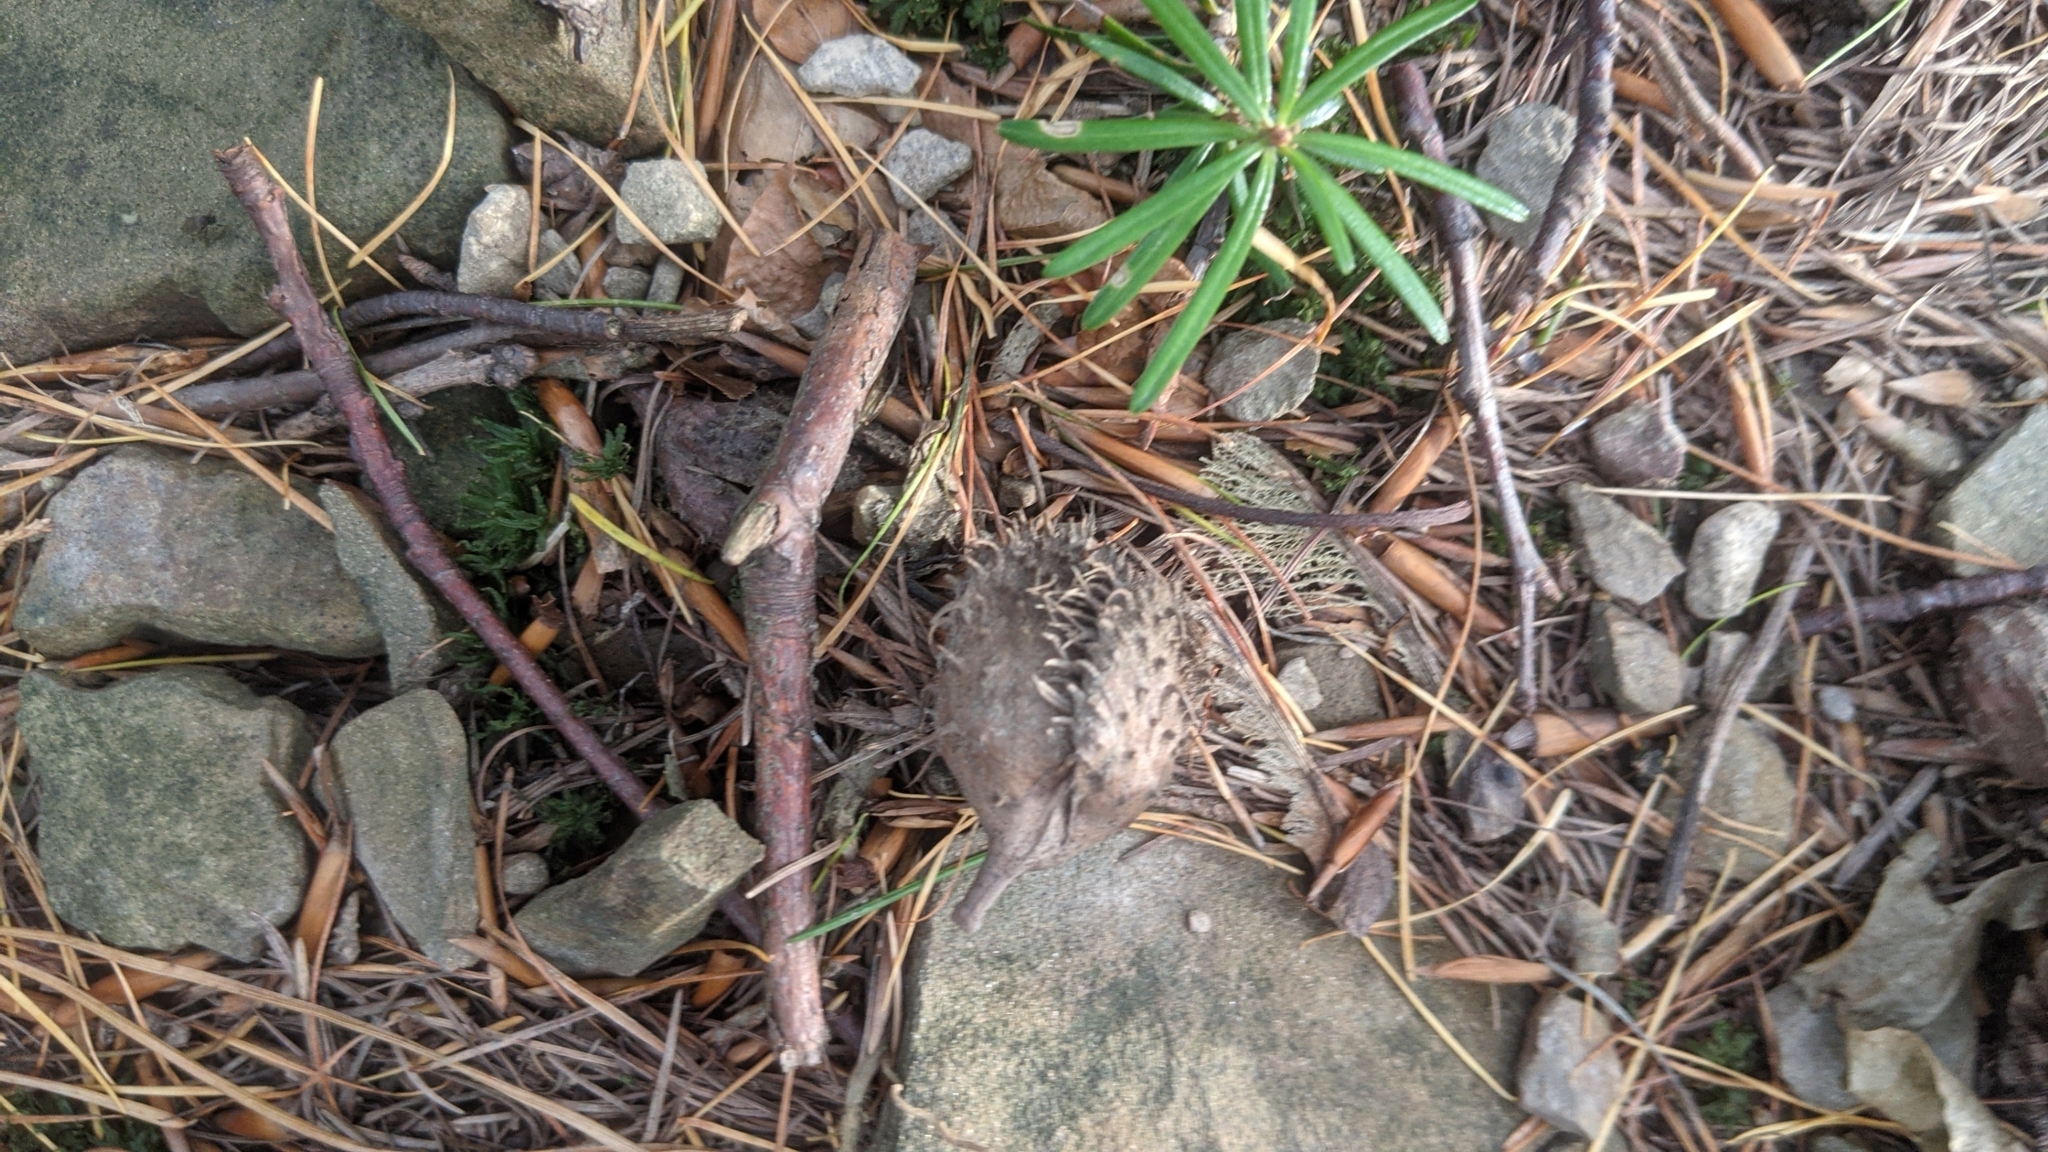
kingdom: Plantae
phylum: Tracheophyta
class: Magnoliopsida
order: Fagales
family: Fagaceae
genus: Fagus
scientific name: Fagus sylvatica
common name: Beech
